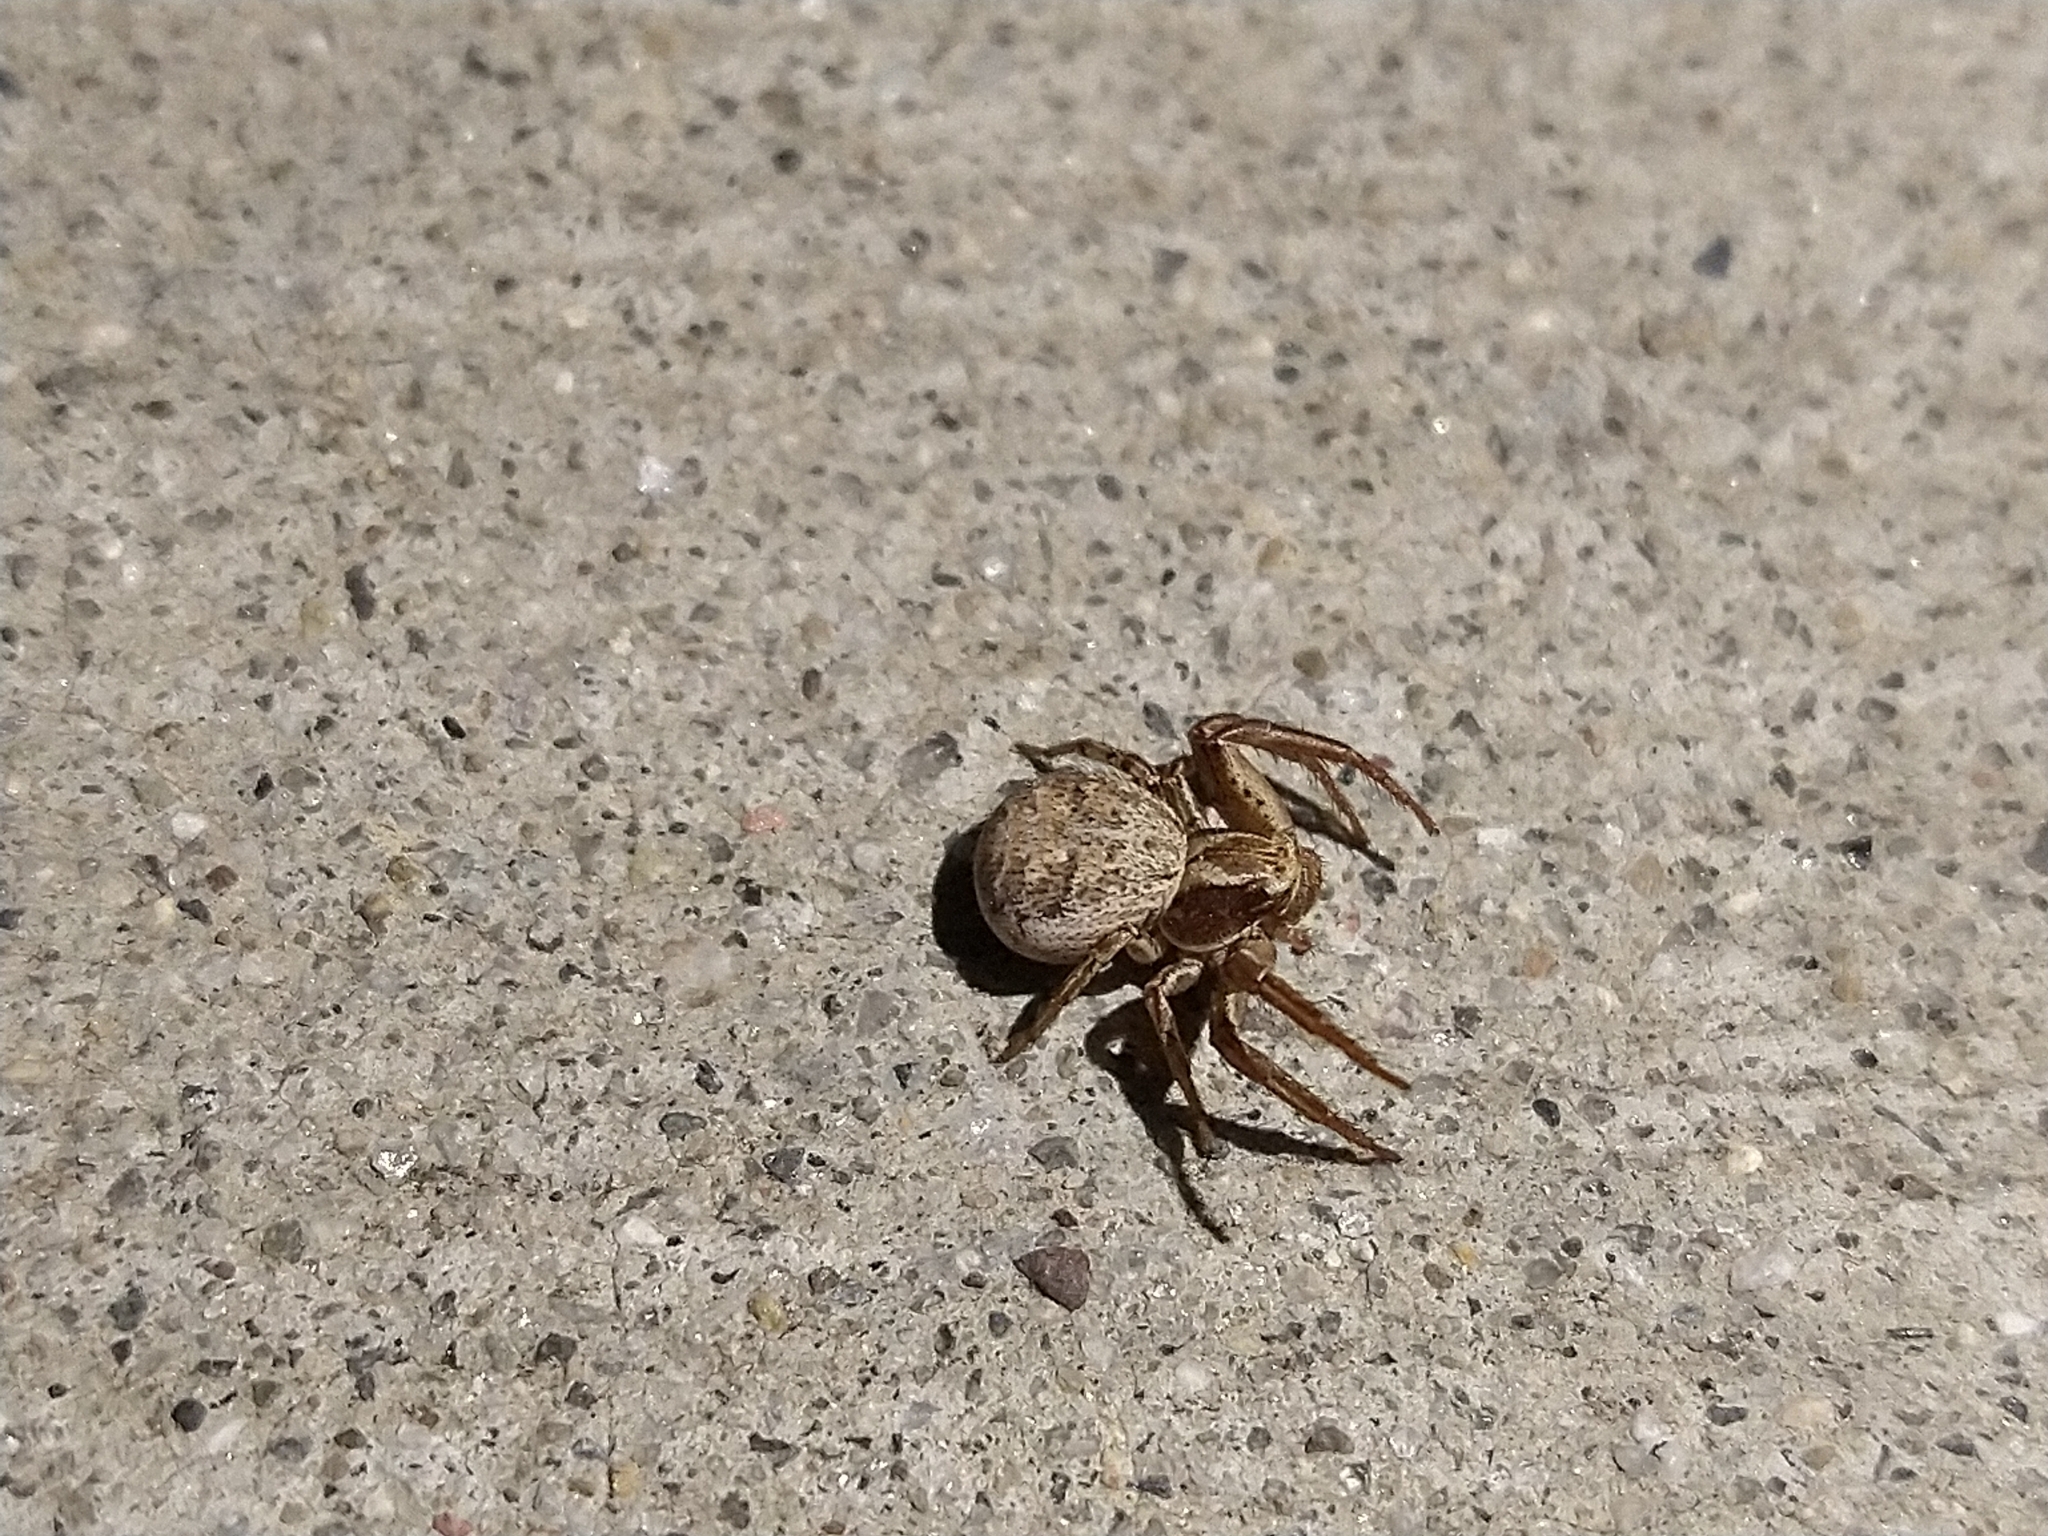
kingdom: Animalia
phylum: Arthropoda
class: Arachnida
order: Araneae
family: Thomisidae
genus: Xysticus
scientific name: Xysticus
